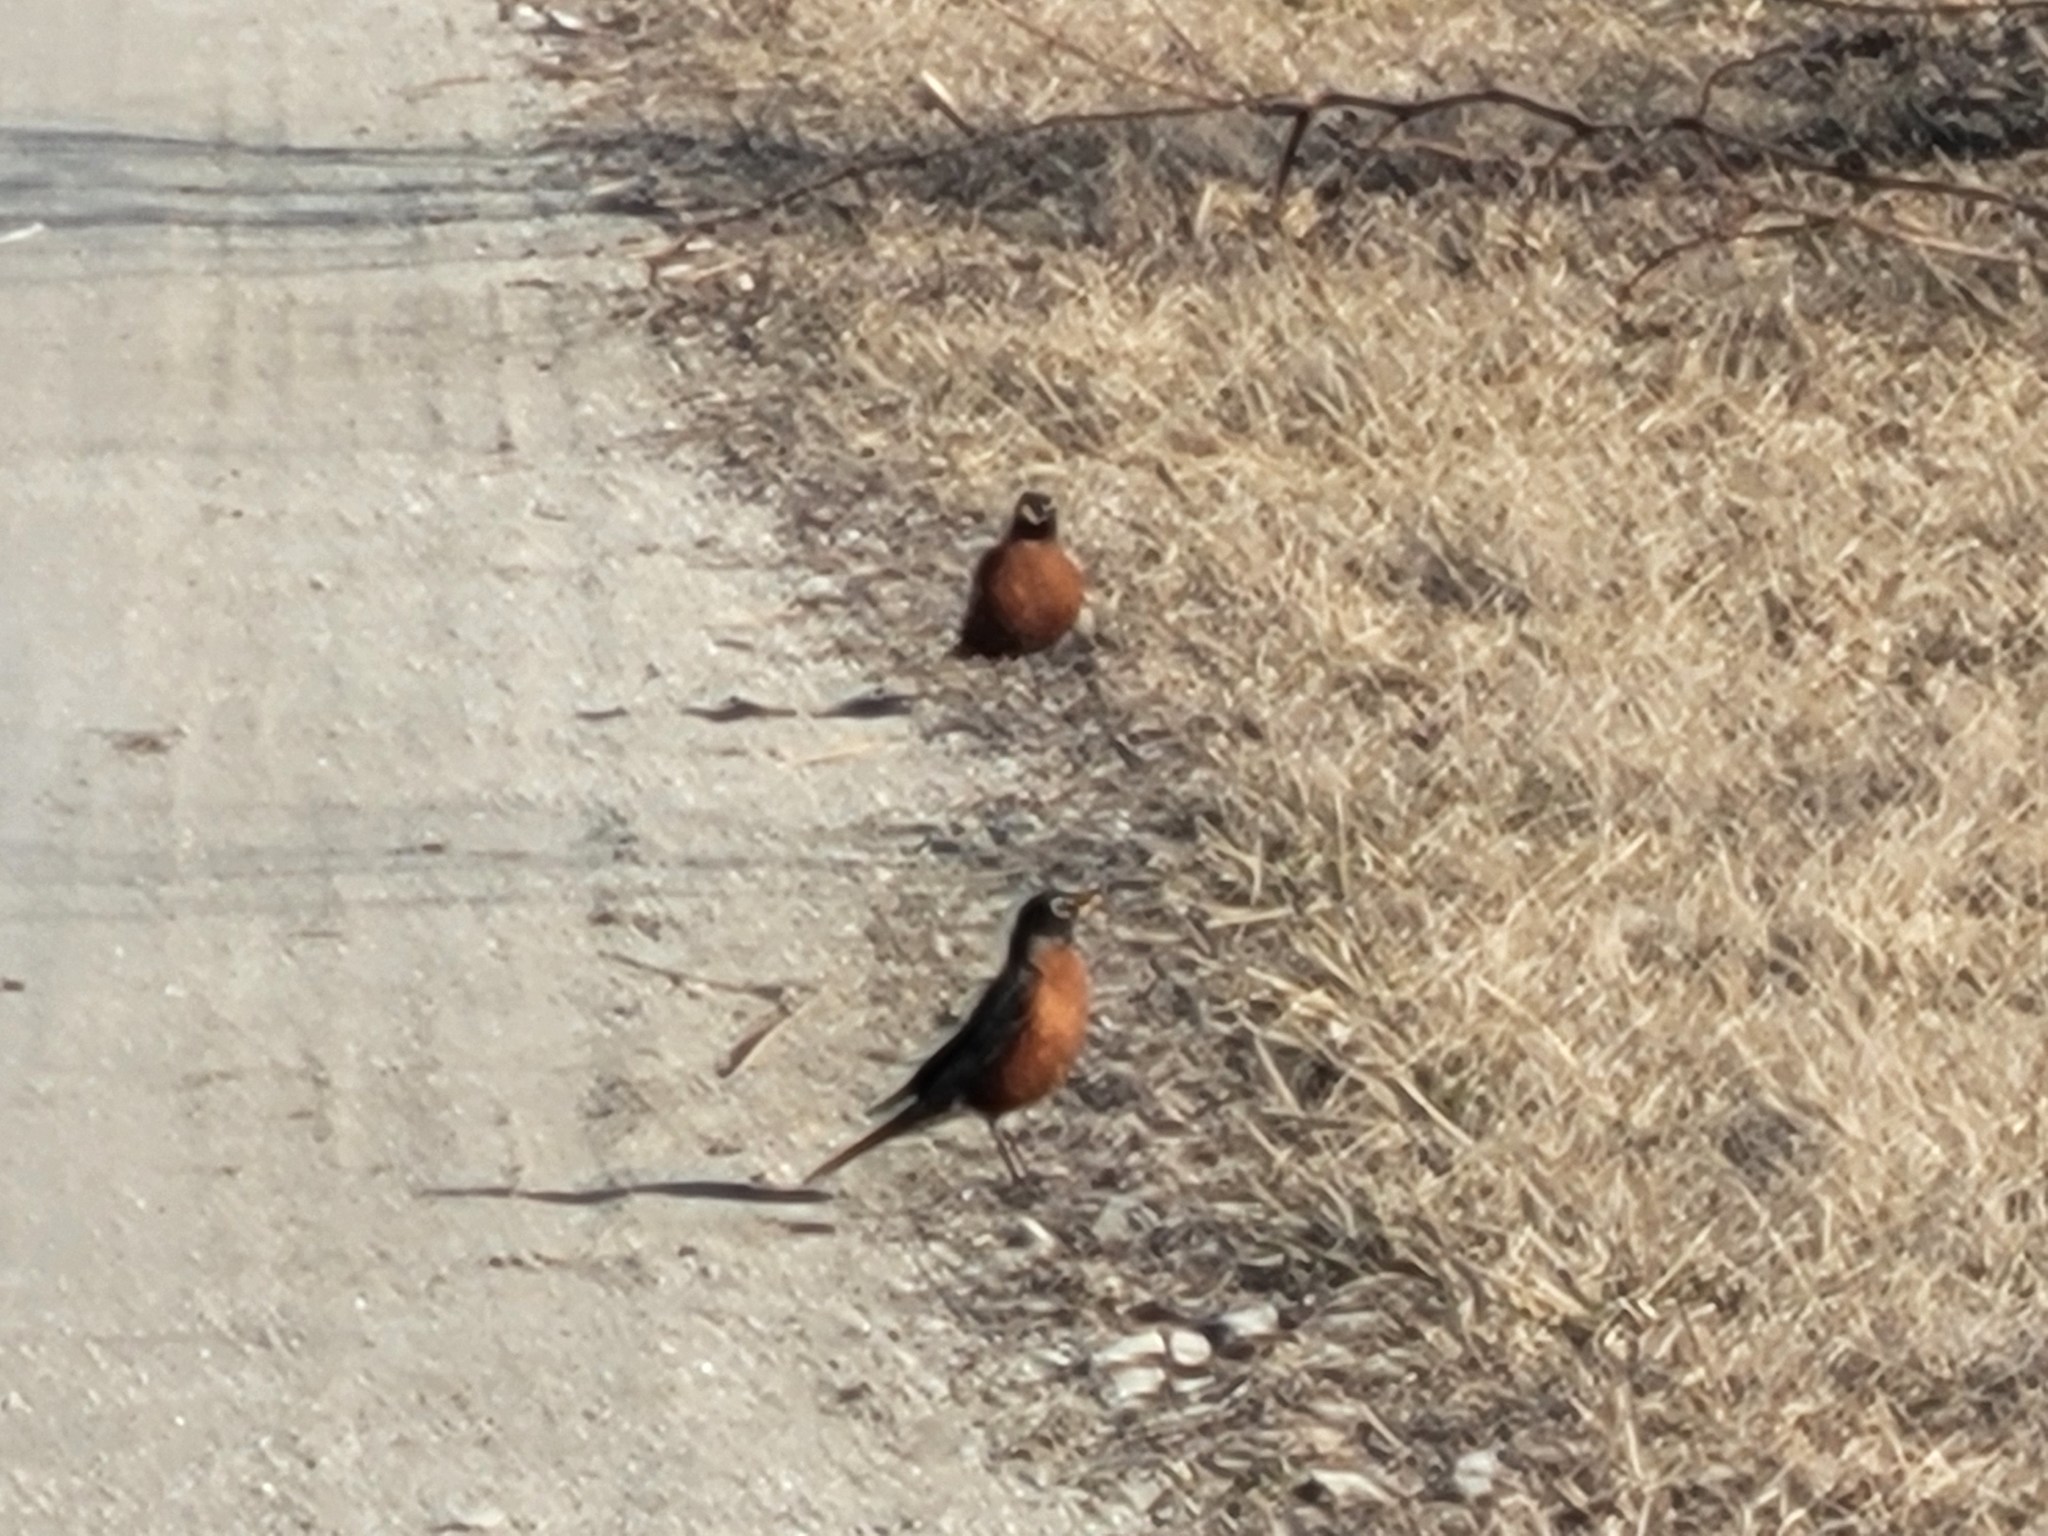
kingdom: Animalia
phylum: Chordata
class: Aves
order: Passeriformes
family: Turdidae
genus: Turdus
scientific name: Turdus migratorius
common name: American robin
